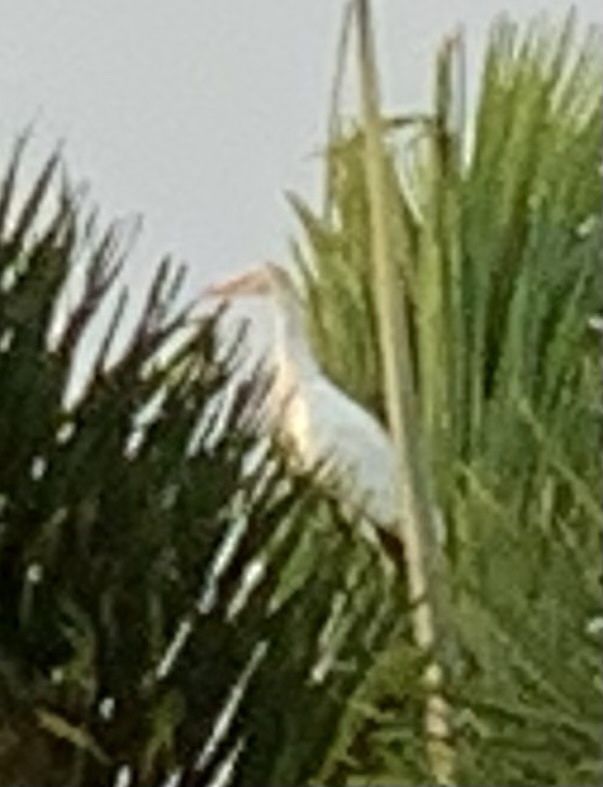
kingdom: Animalia
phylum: Chordata
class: Aves
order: Pelecaniformes
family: Ardeidae
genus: Bubulcus
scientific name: Bubulcus ibis
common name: Cattle egret
